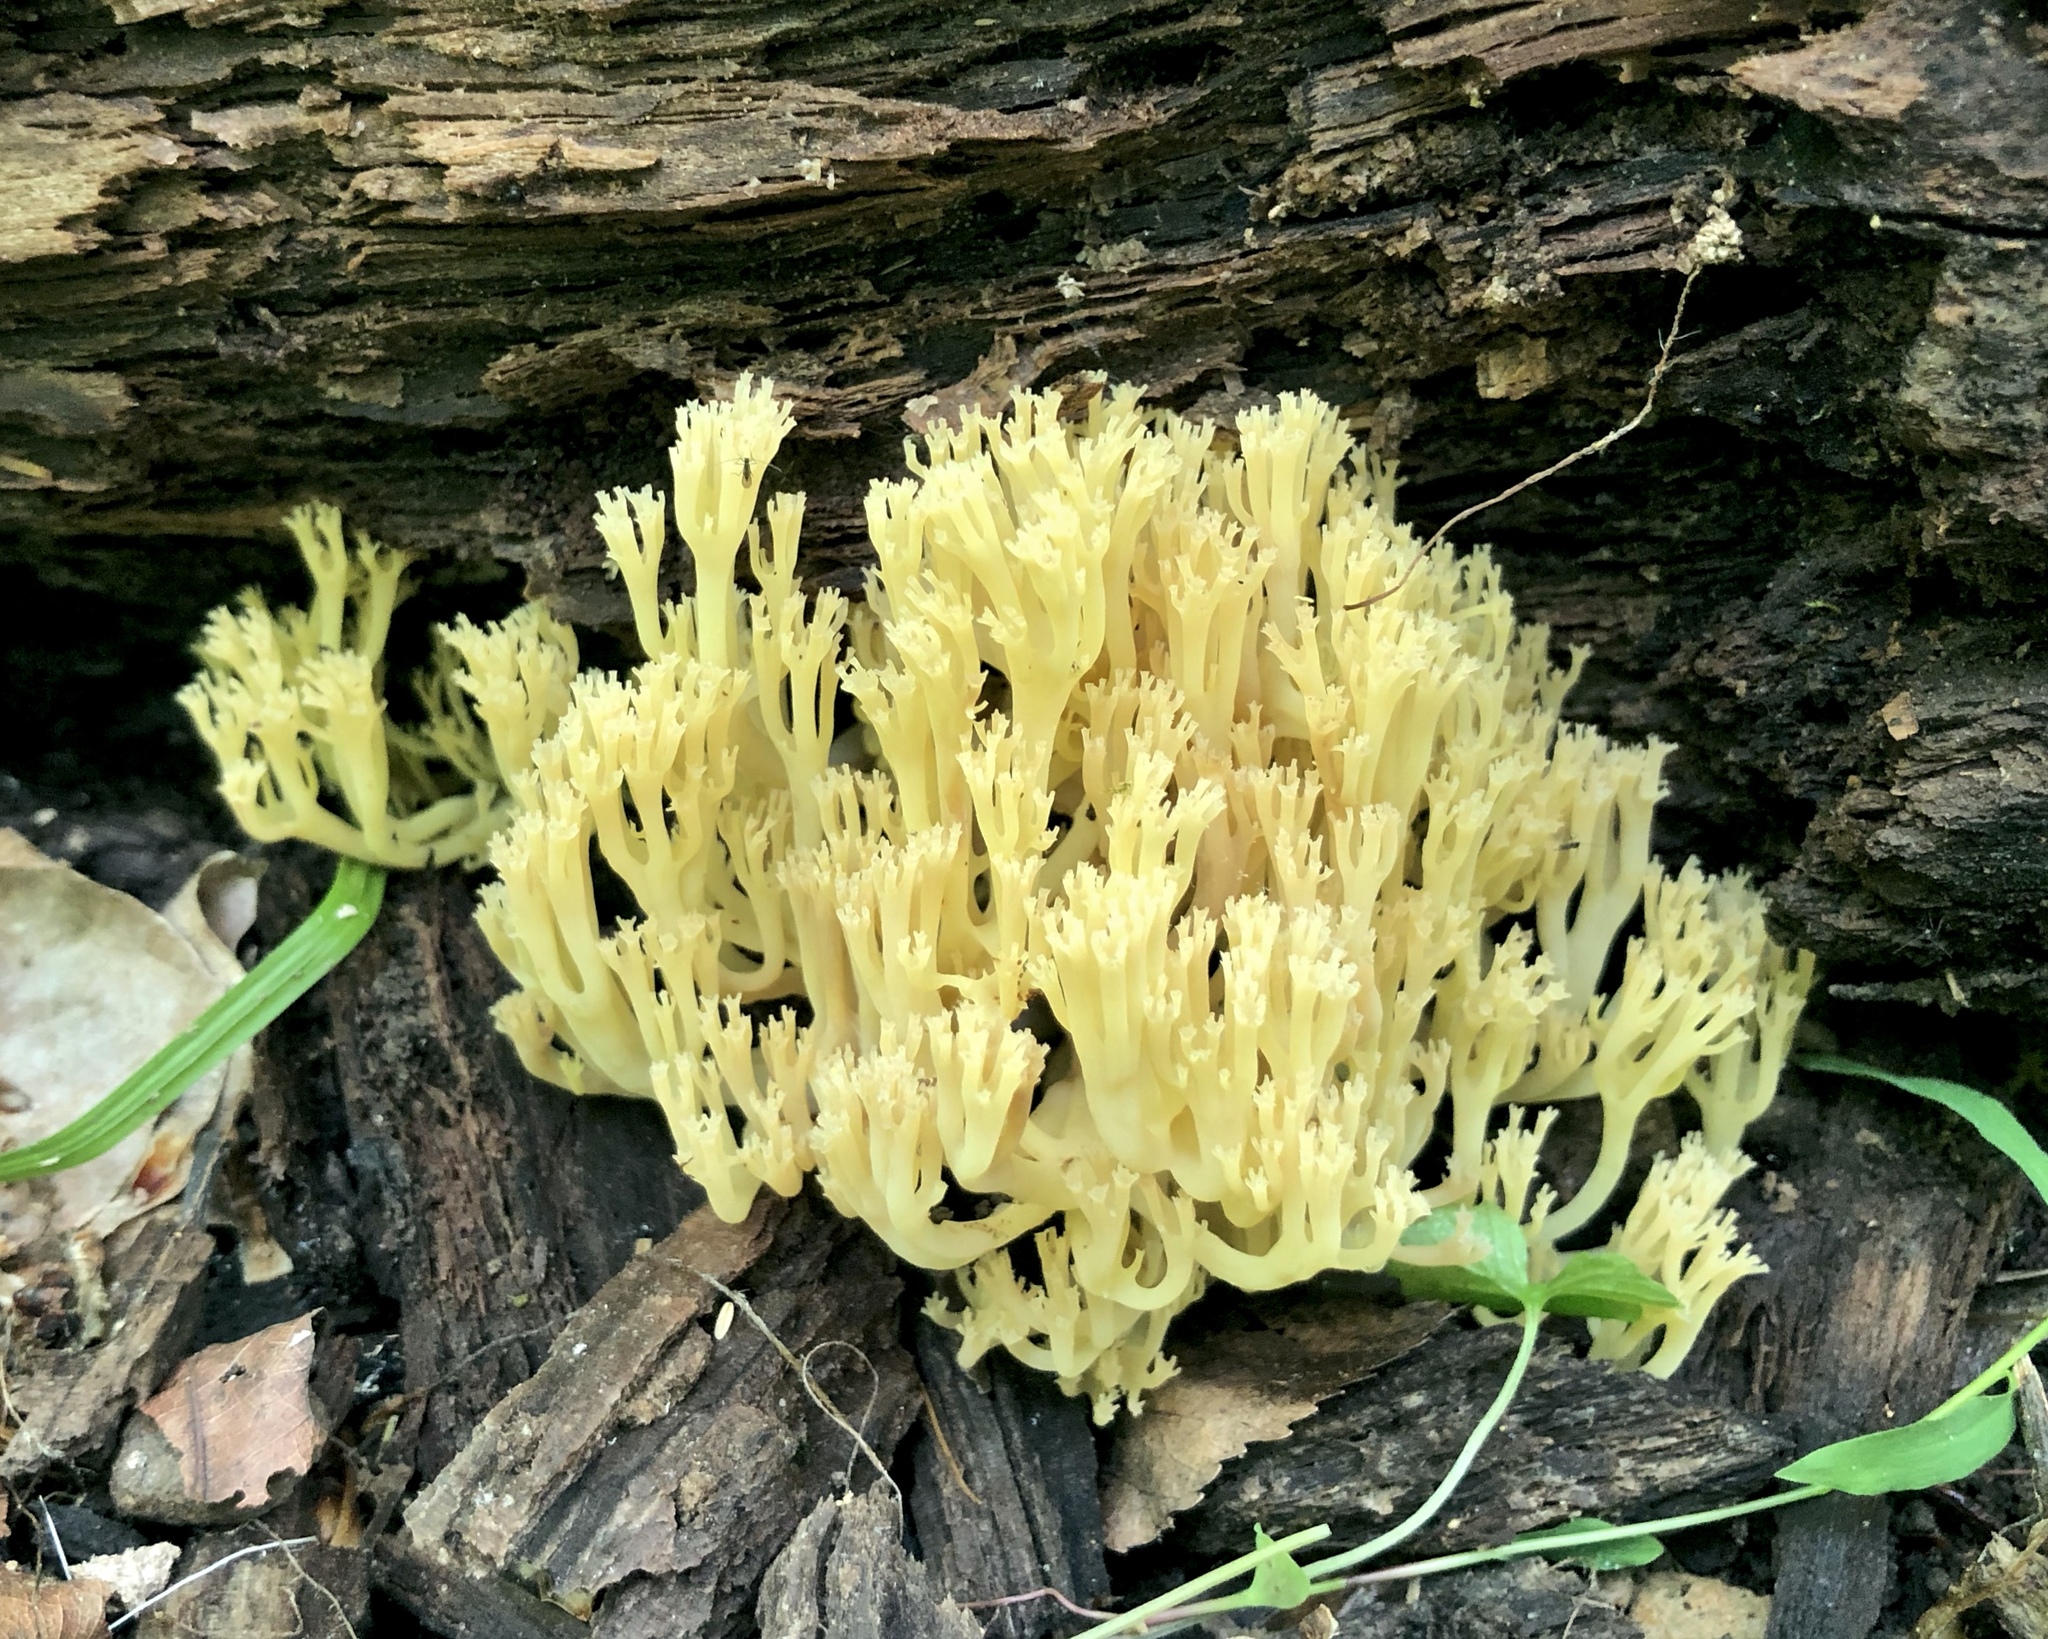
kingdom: Fungi
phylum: Basidiomycota
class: Agaricomycetes
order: Russulales
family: Auriscalpiaceae
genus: Artomyces
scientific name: Artomyces pyxidatus
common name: Crown-tipped coral fungus
